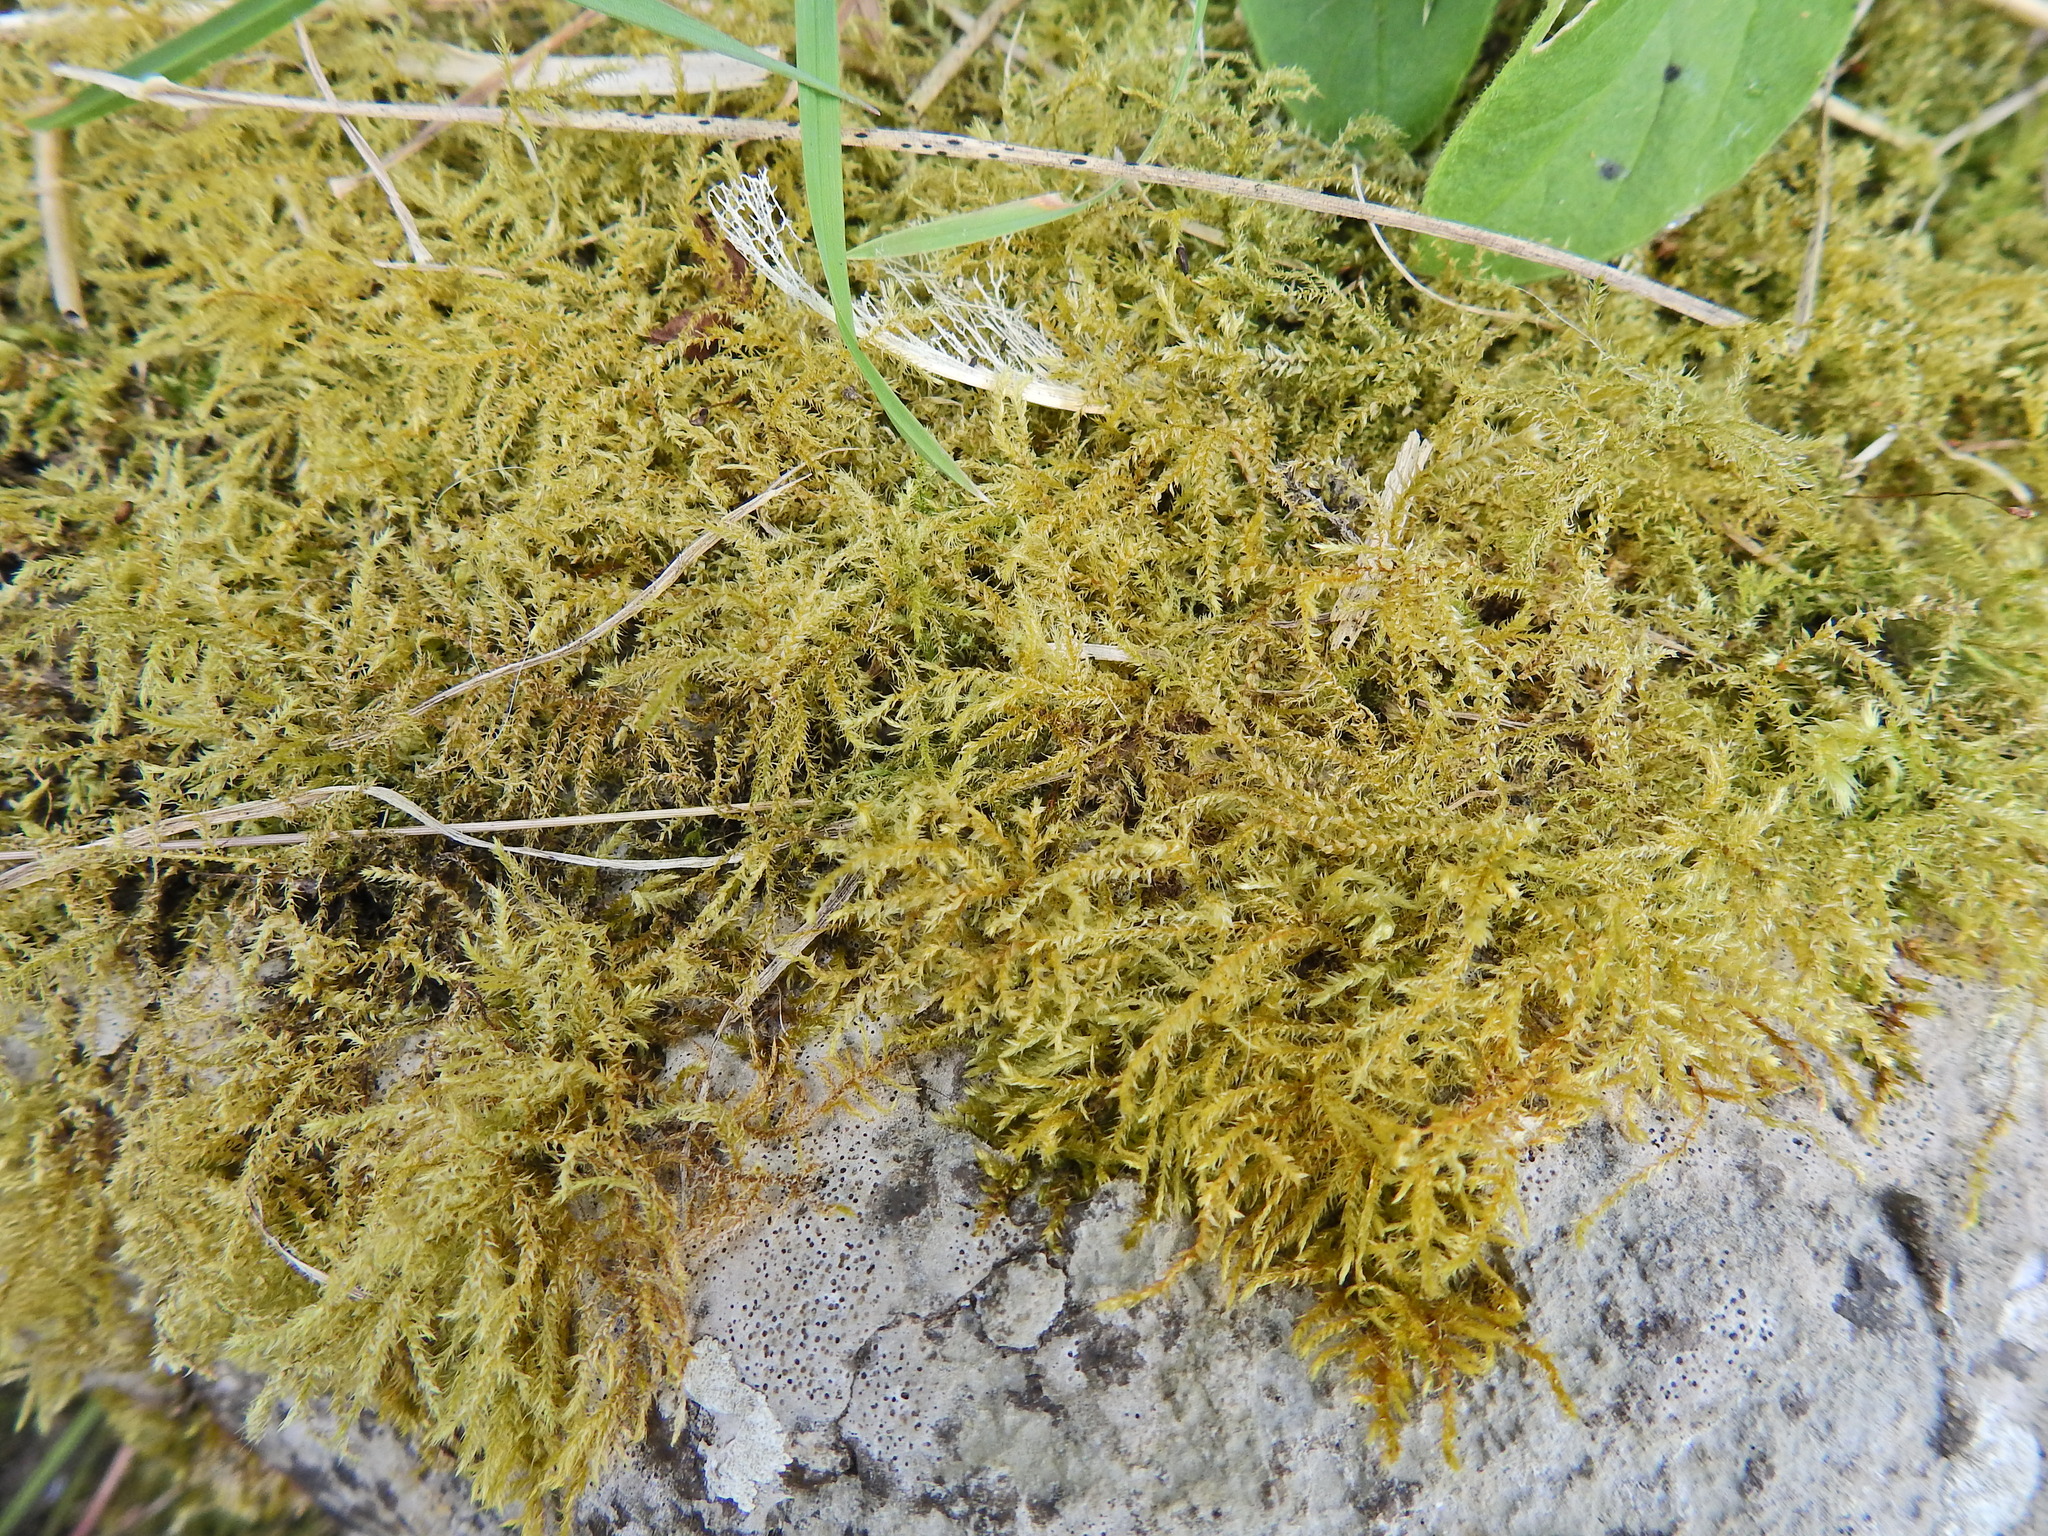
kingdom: Plantae
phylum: Bryophyta
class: Bryopsida
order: Hypnales
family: Brachytheciaceae
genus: Oxyrrhynchium
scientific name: Oxyrrhynchium hians
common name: Spreading beaked moss
